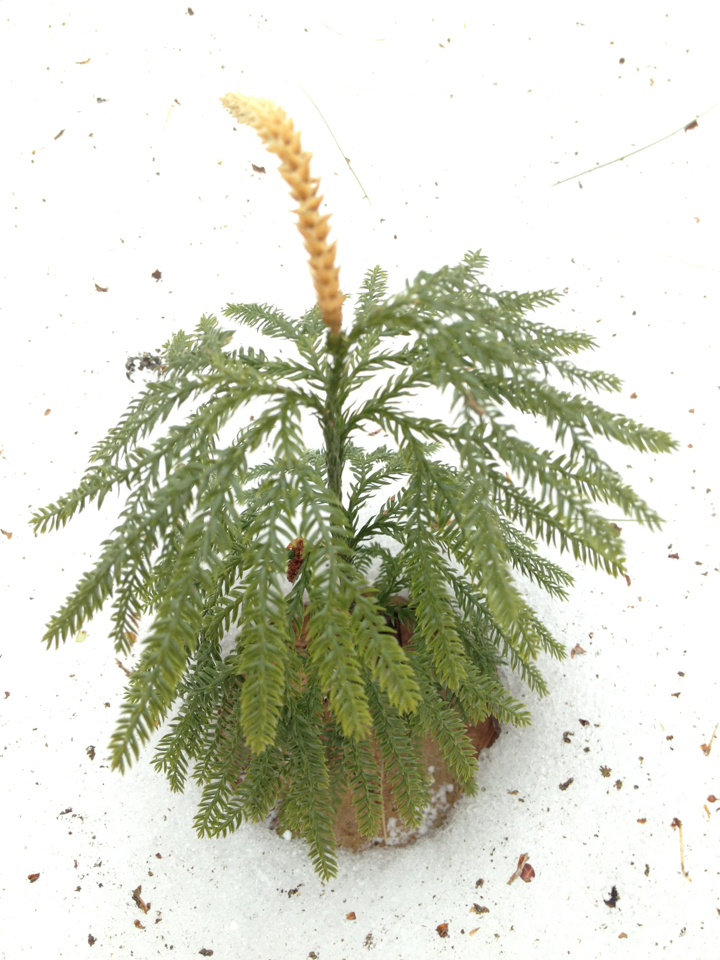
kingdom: Plantae
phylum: Tracheophyta
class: Lycopodiopsida
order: Lycopodiales
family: Lycopodiaceae
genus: Dendrolycopodium
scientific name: Dendrolycopodium obscurum
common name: Common ground-pine
